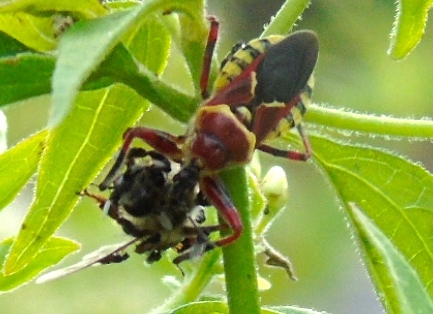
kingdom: Animalia
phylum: Arthropoda
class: Insecta
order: Hemiptera
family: Reduviidae
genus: Apiomerus
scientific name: Apiomerus flaviventris
